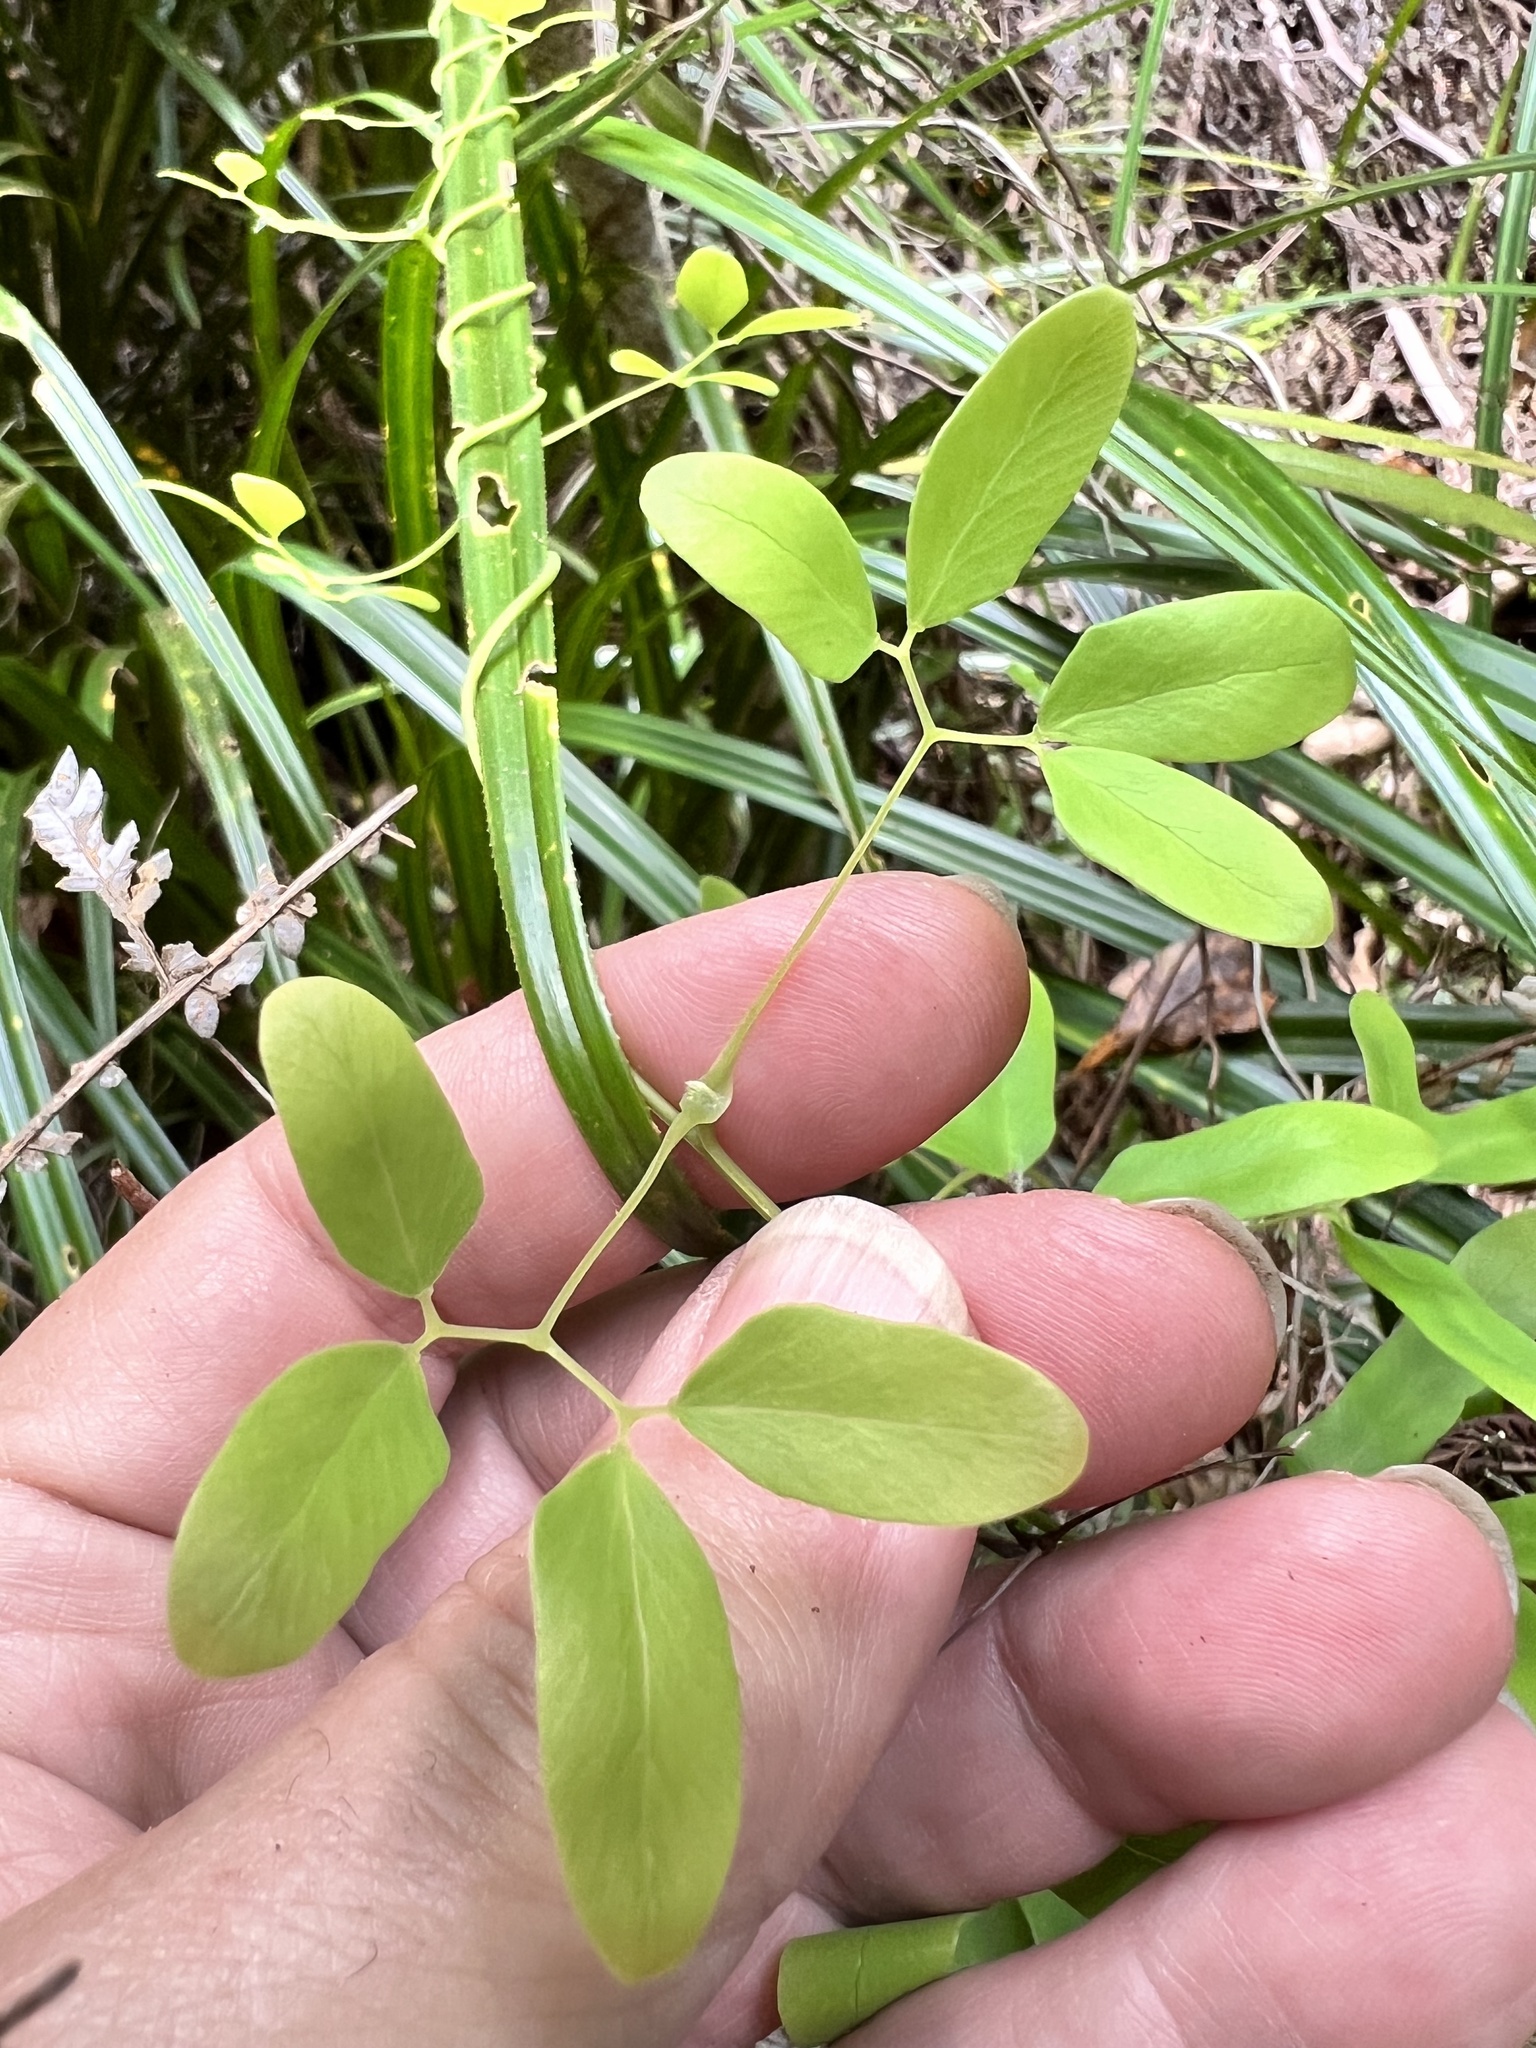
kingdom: Plantae
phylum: Tracheophyta
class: Polypodiopsida
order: Schizaeales
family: Lygodiaceae
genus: Lygodium
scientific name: Lygodium articulatum
